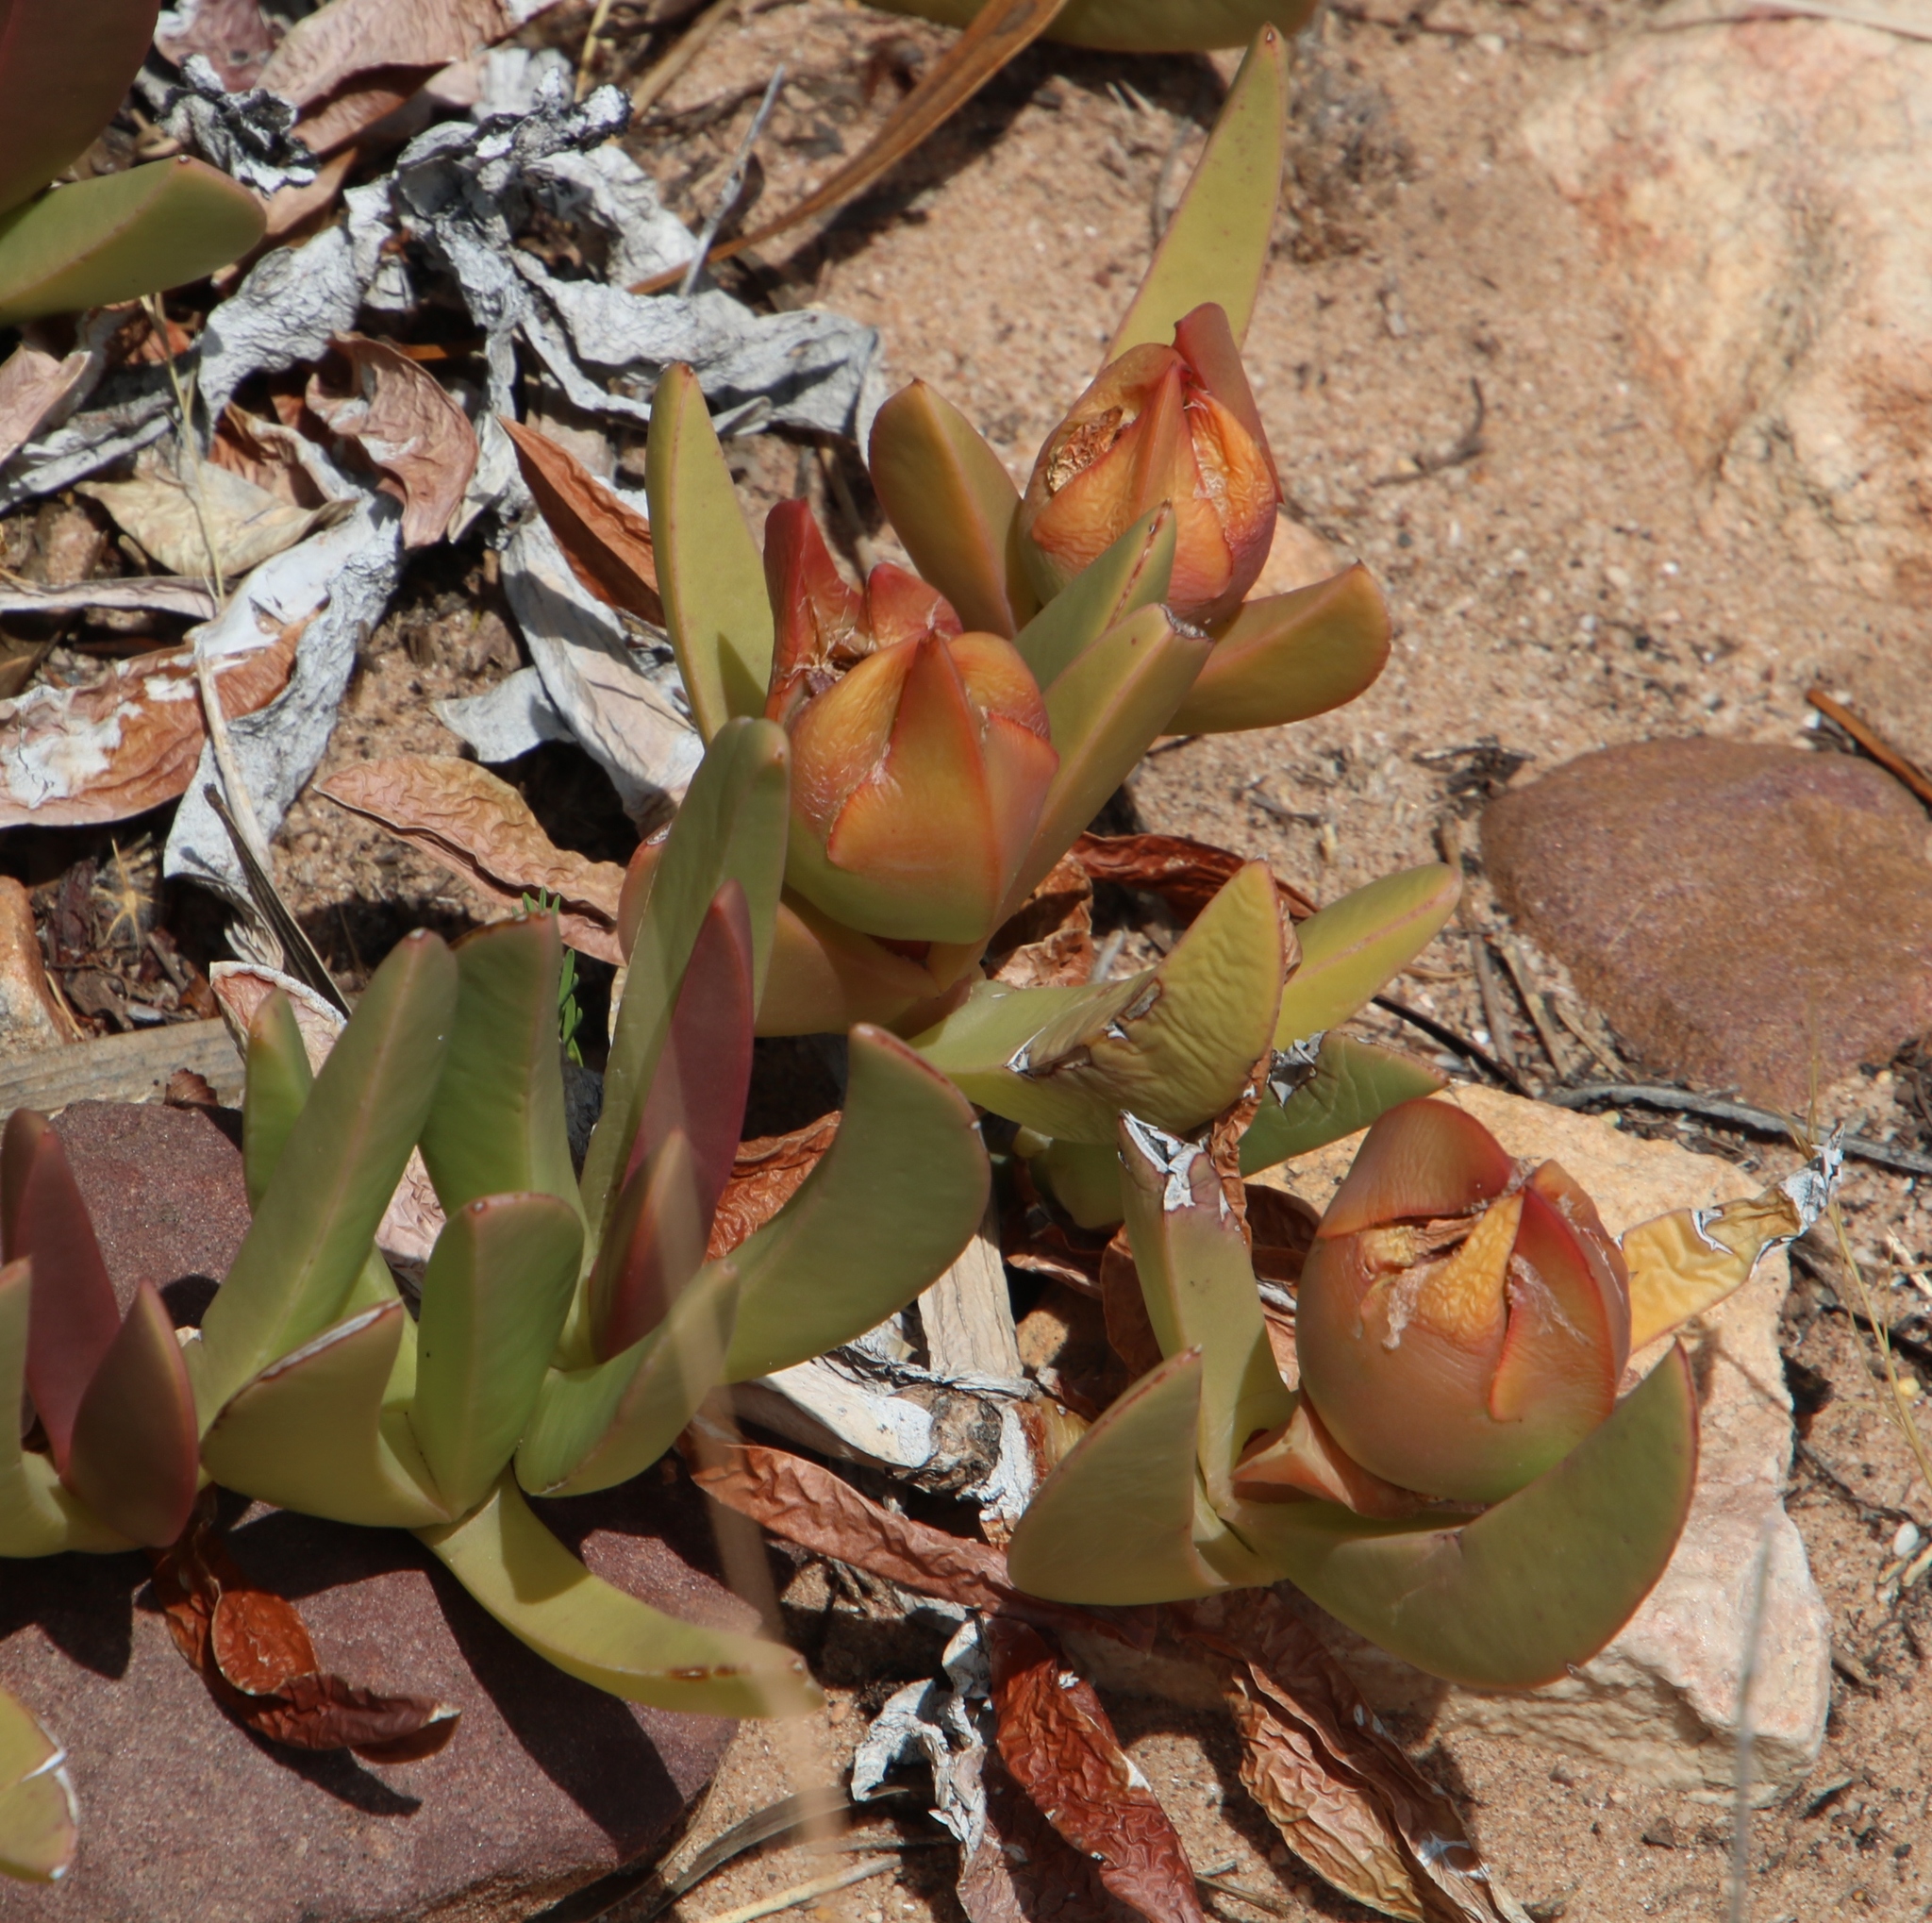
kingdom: Plantae
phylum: Tracheophyta
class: Magnoliopsida
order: Caryophyllales
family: Aizoaceae
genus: Carpobrotus
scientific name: Carpobrotus edulis
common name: Hottentot-fig
